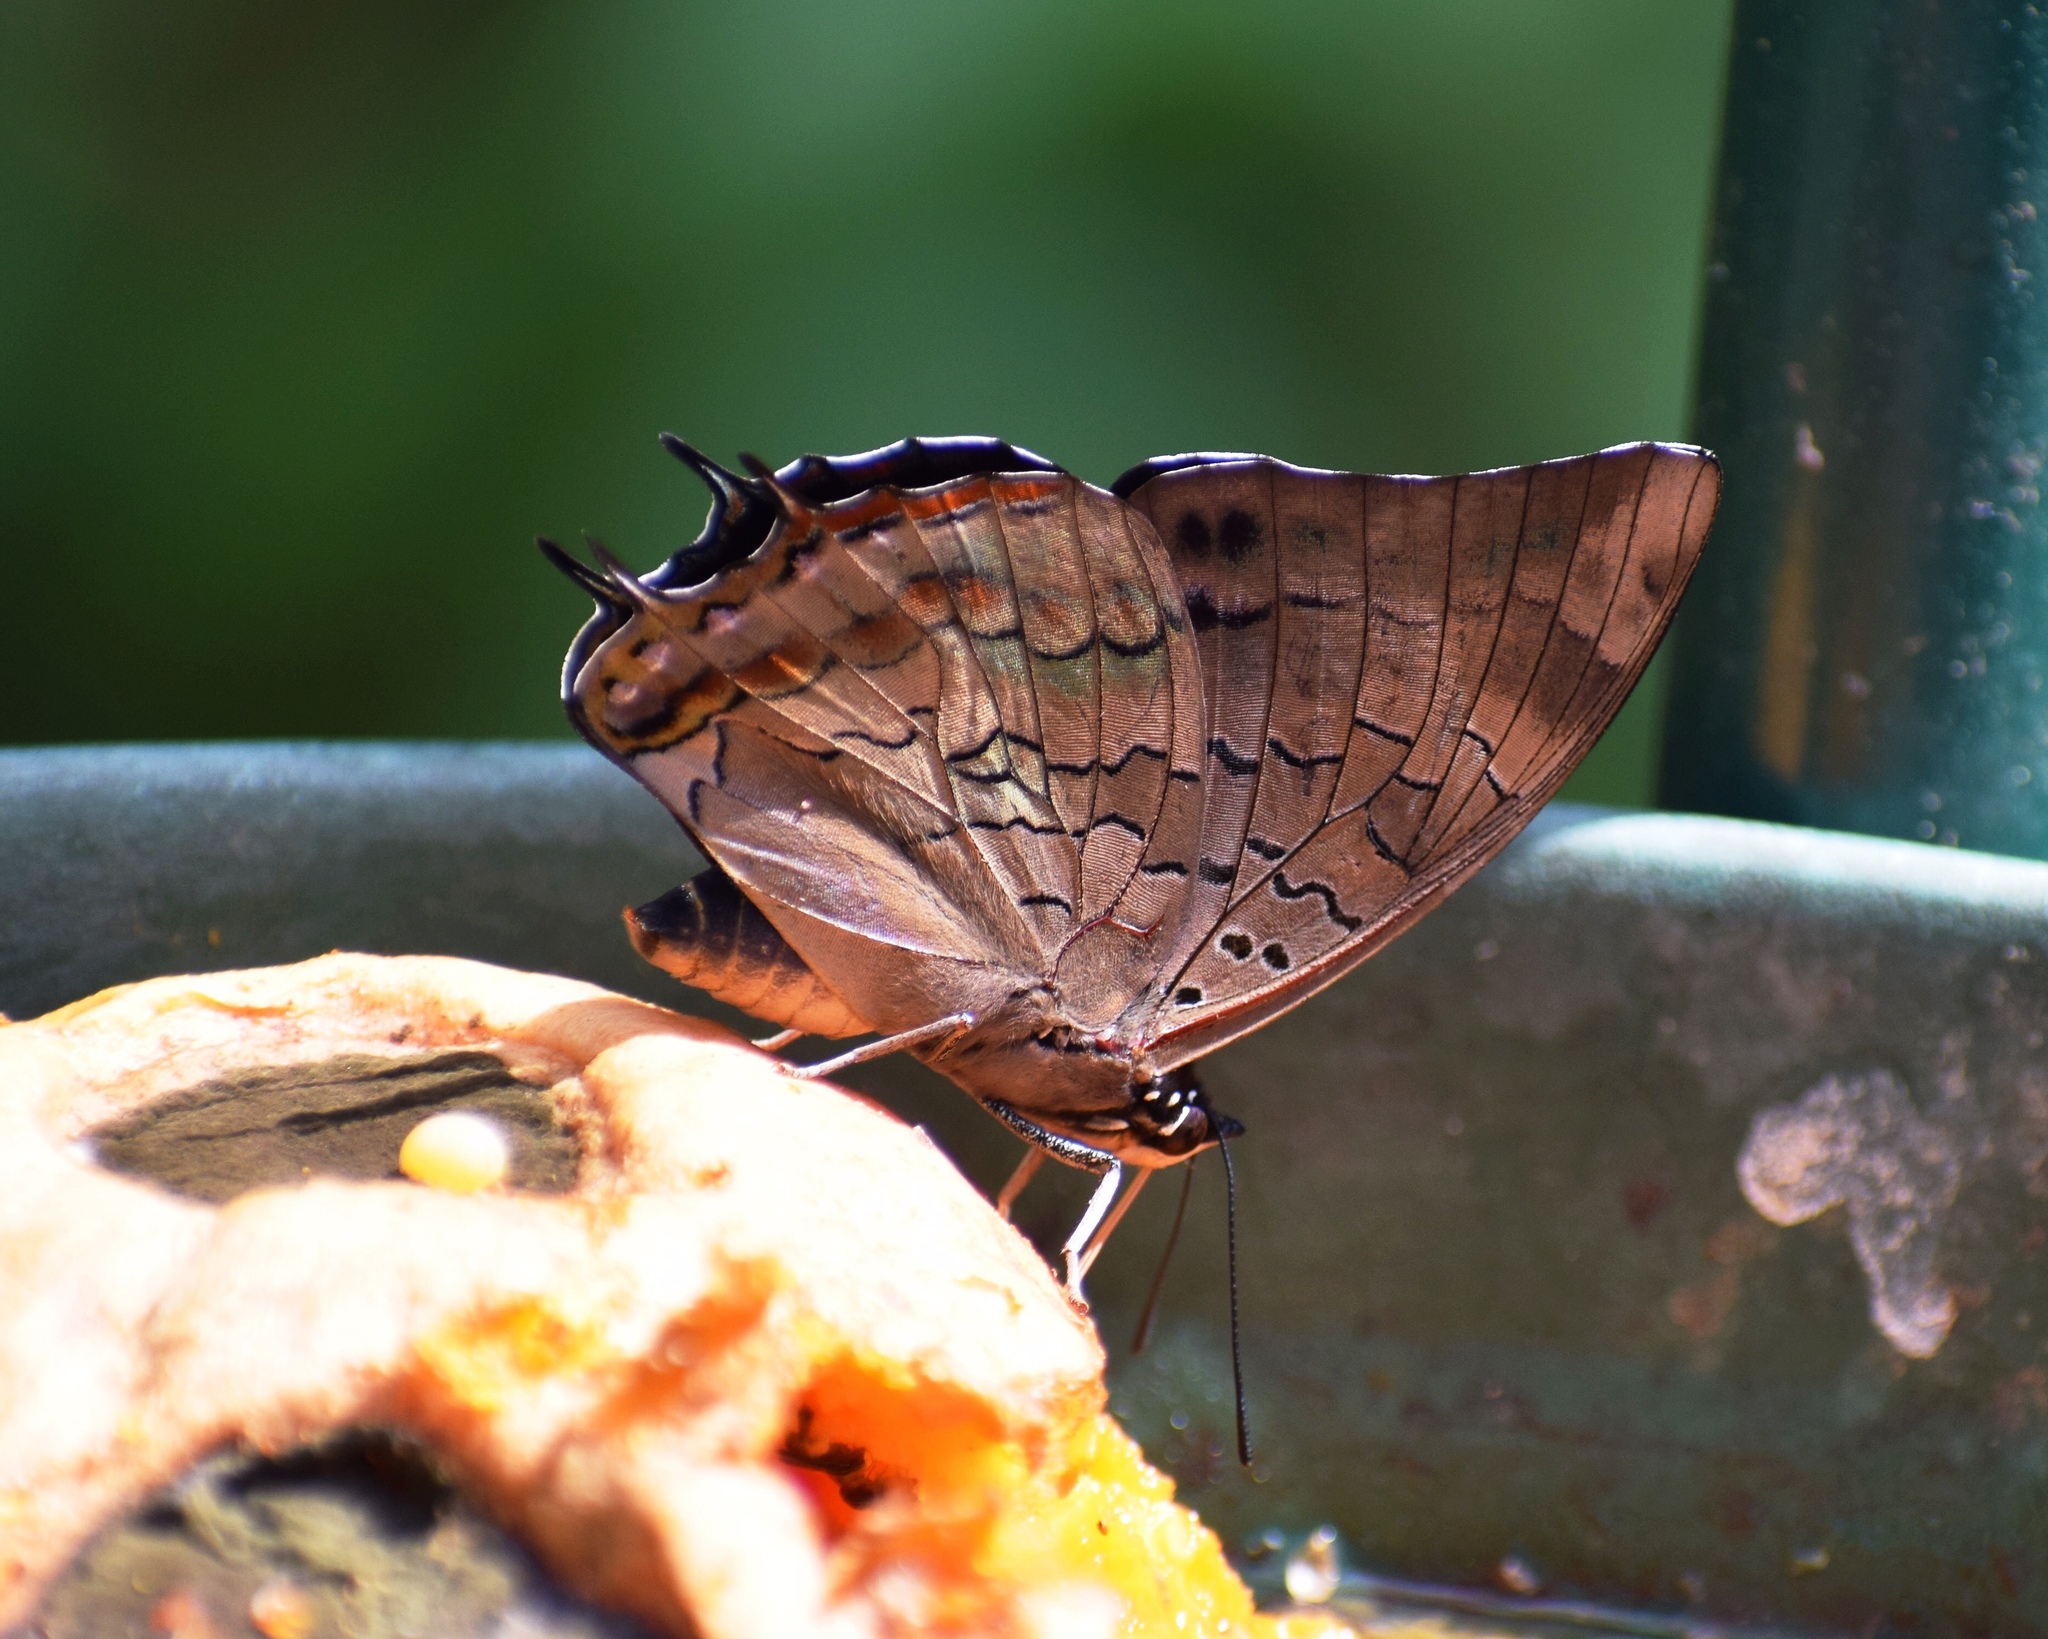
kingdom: Animalia
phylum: Arthropoda
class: Insecta
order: Lepidoptera
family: Nymphalidae
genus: Charaxes
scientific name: Charaxes ethalion
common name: Satyr charaxes
